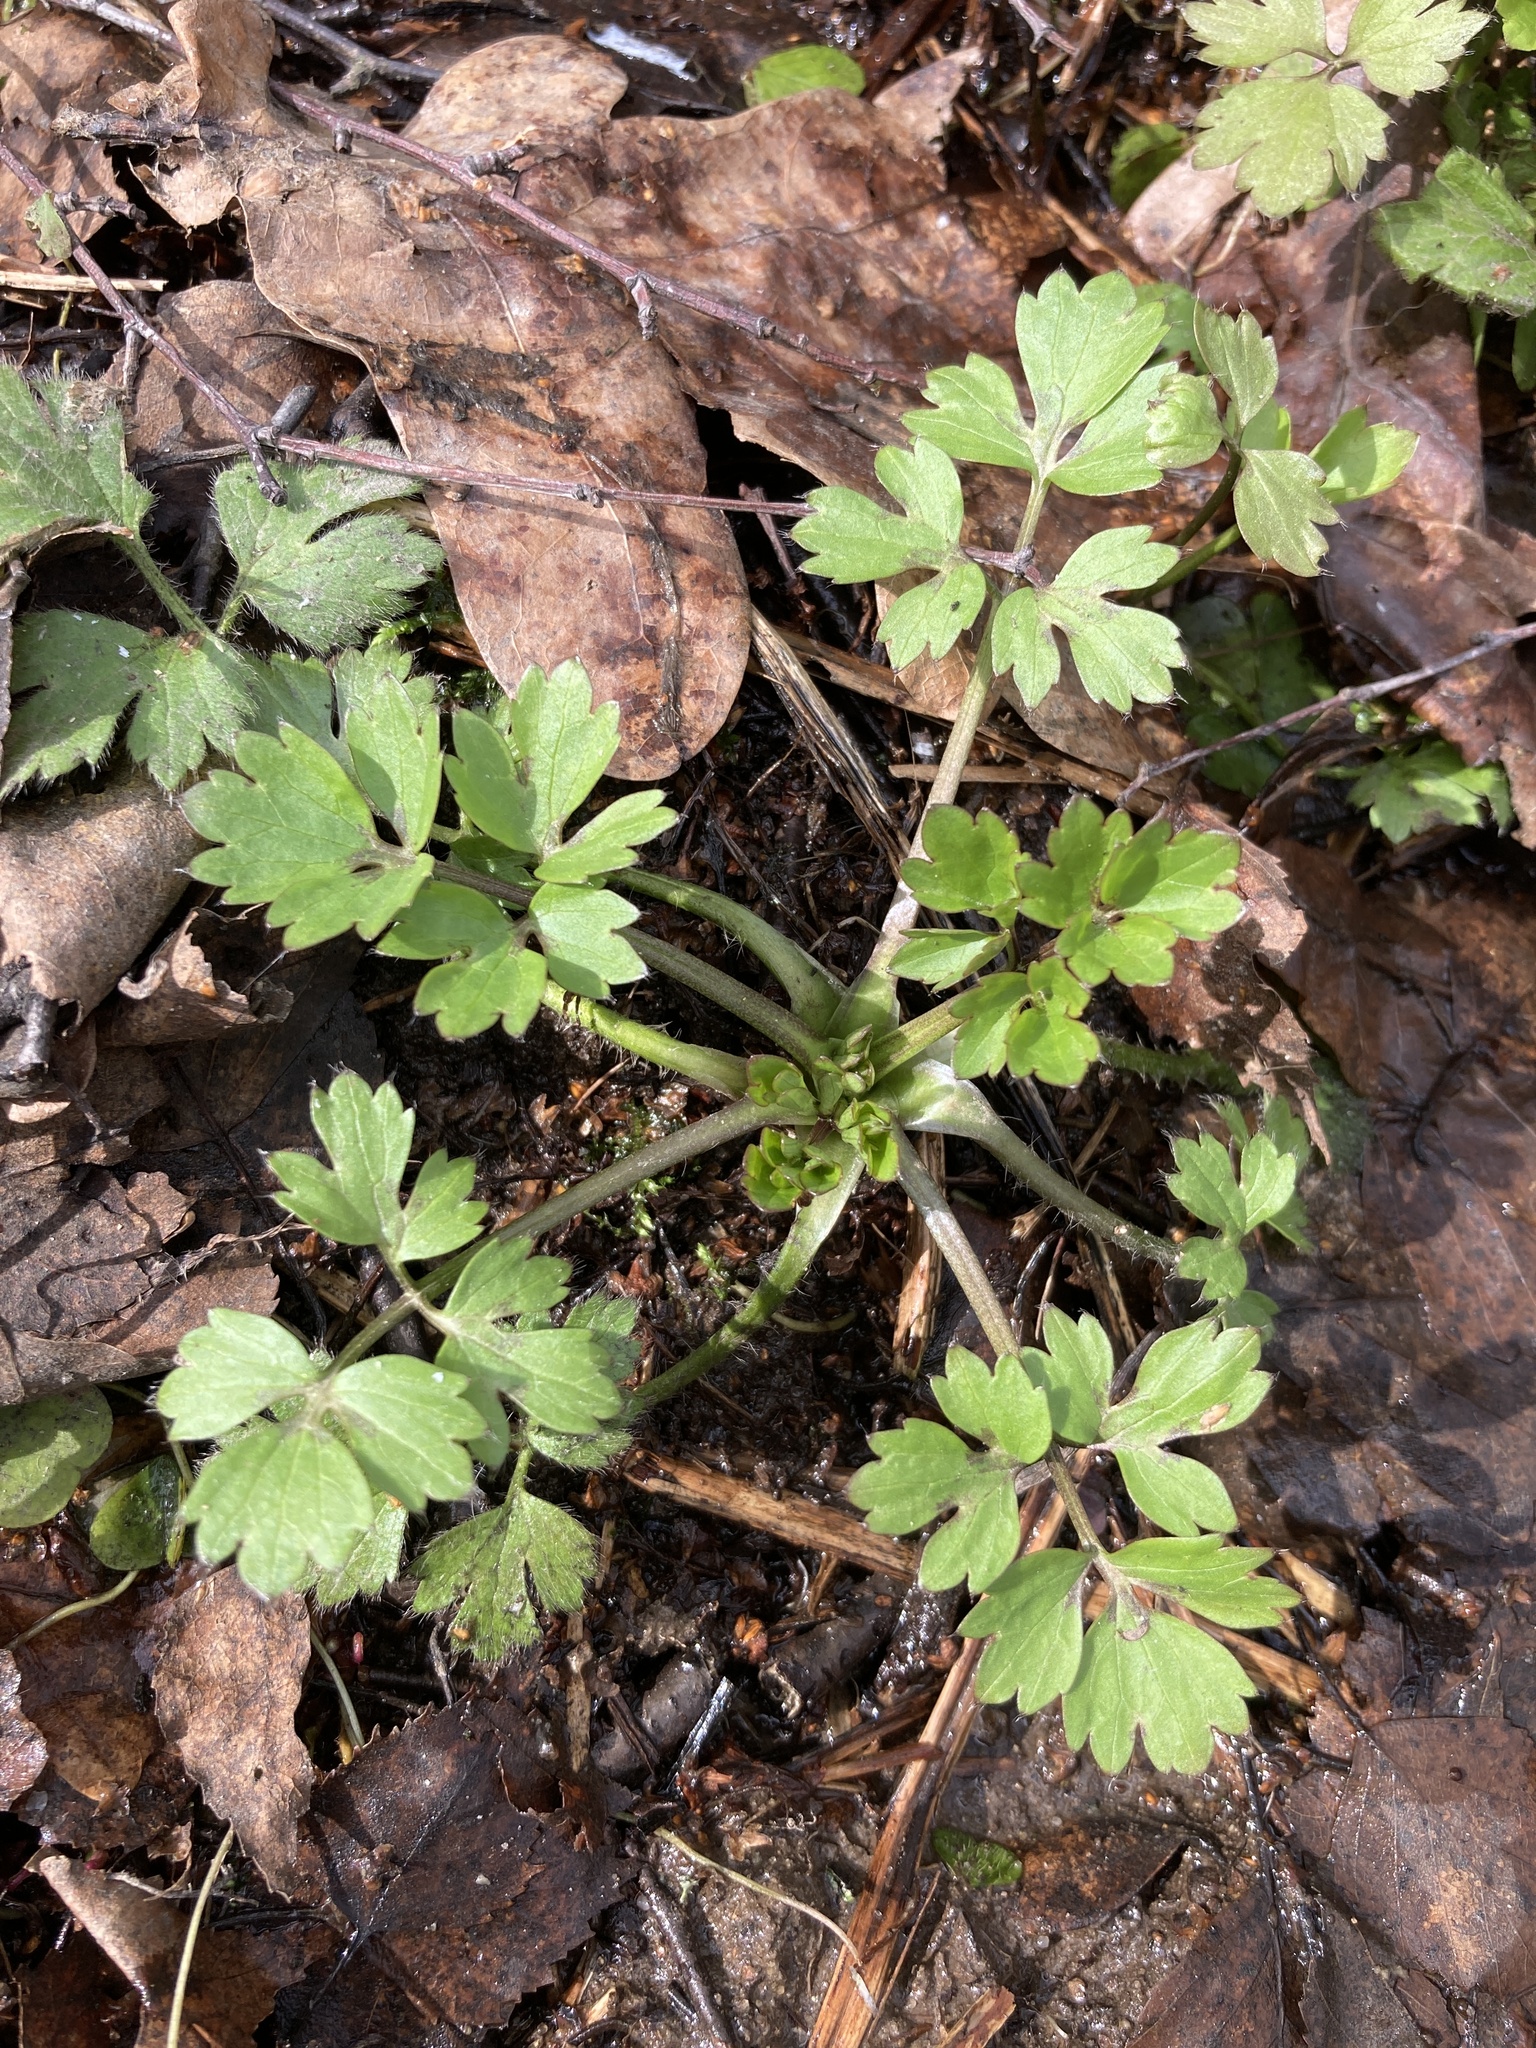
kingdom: Plantae
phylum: Tracheophyta
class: Magnoliopsida
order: Ranunculales
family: Ranunculaceae
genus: Ranunculus
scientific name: Ranunculus repens
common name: Creeping buttercup
